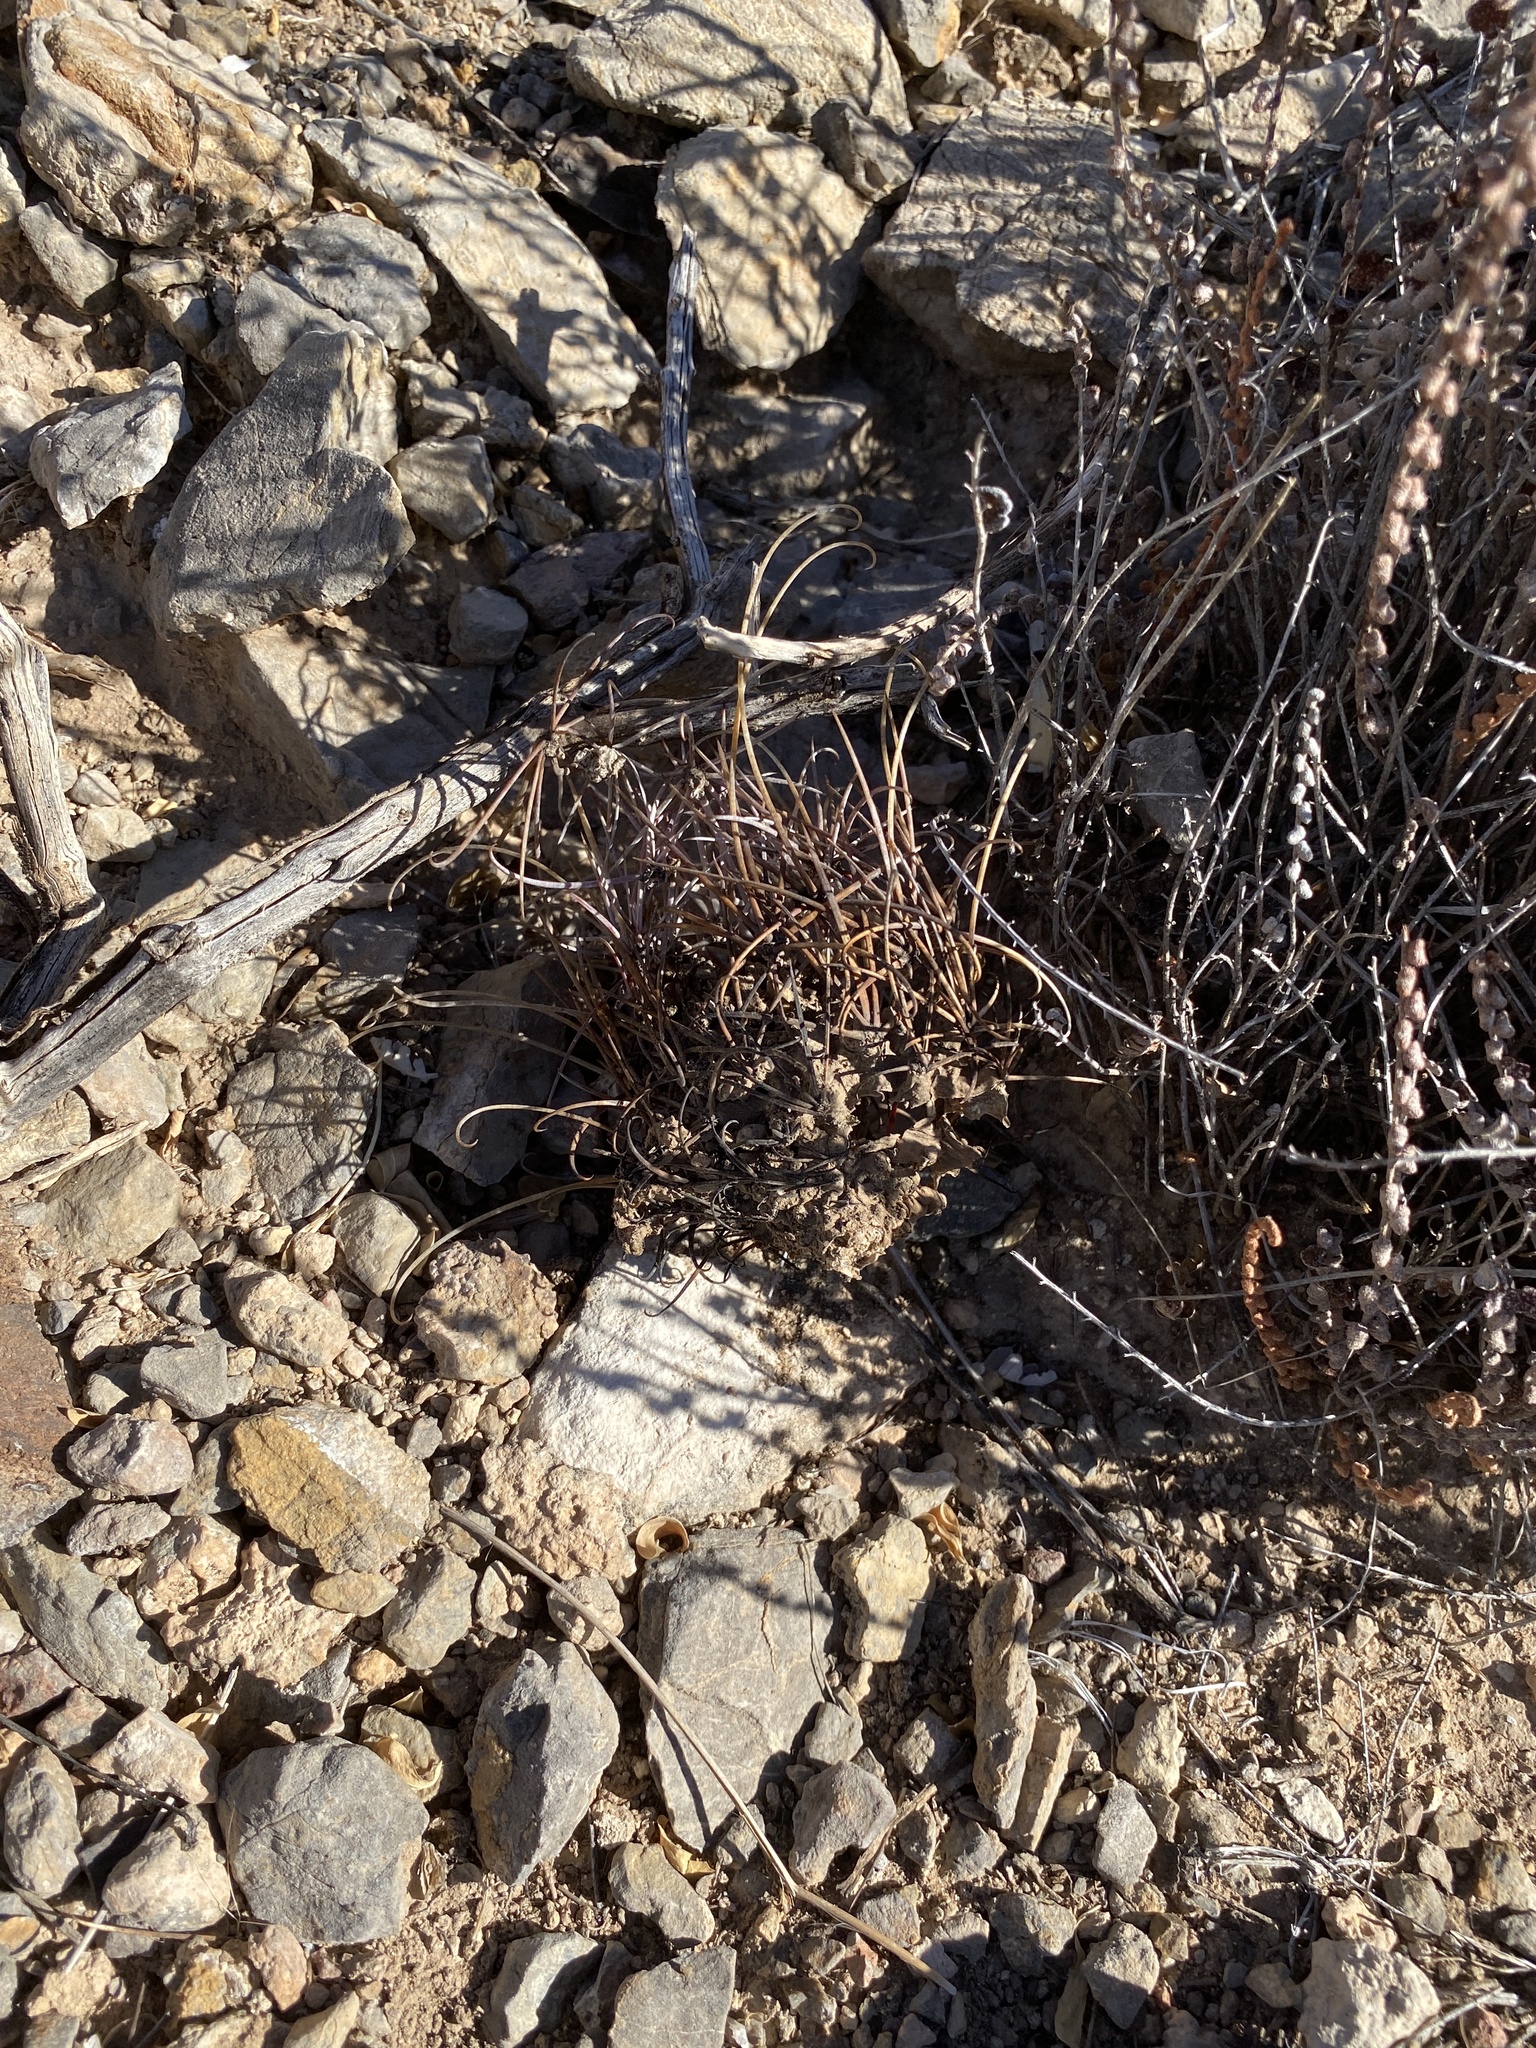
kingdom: Plantae
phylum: Tracheophyta
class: Magnoliopsida
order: Caryophyllales
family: Cactaceae
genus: Ferocactus
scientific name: Ferocactus uncinatus
